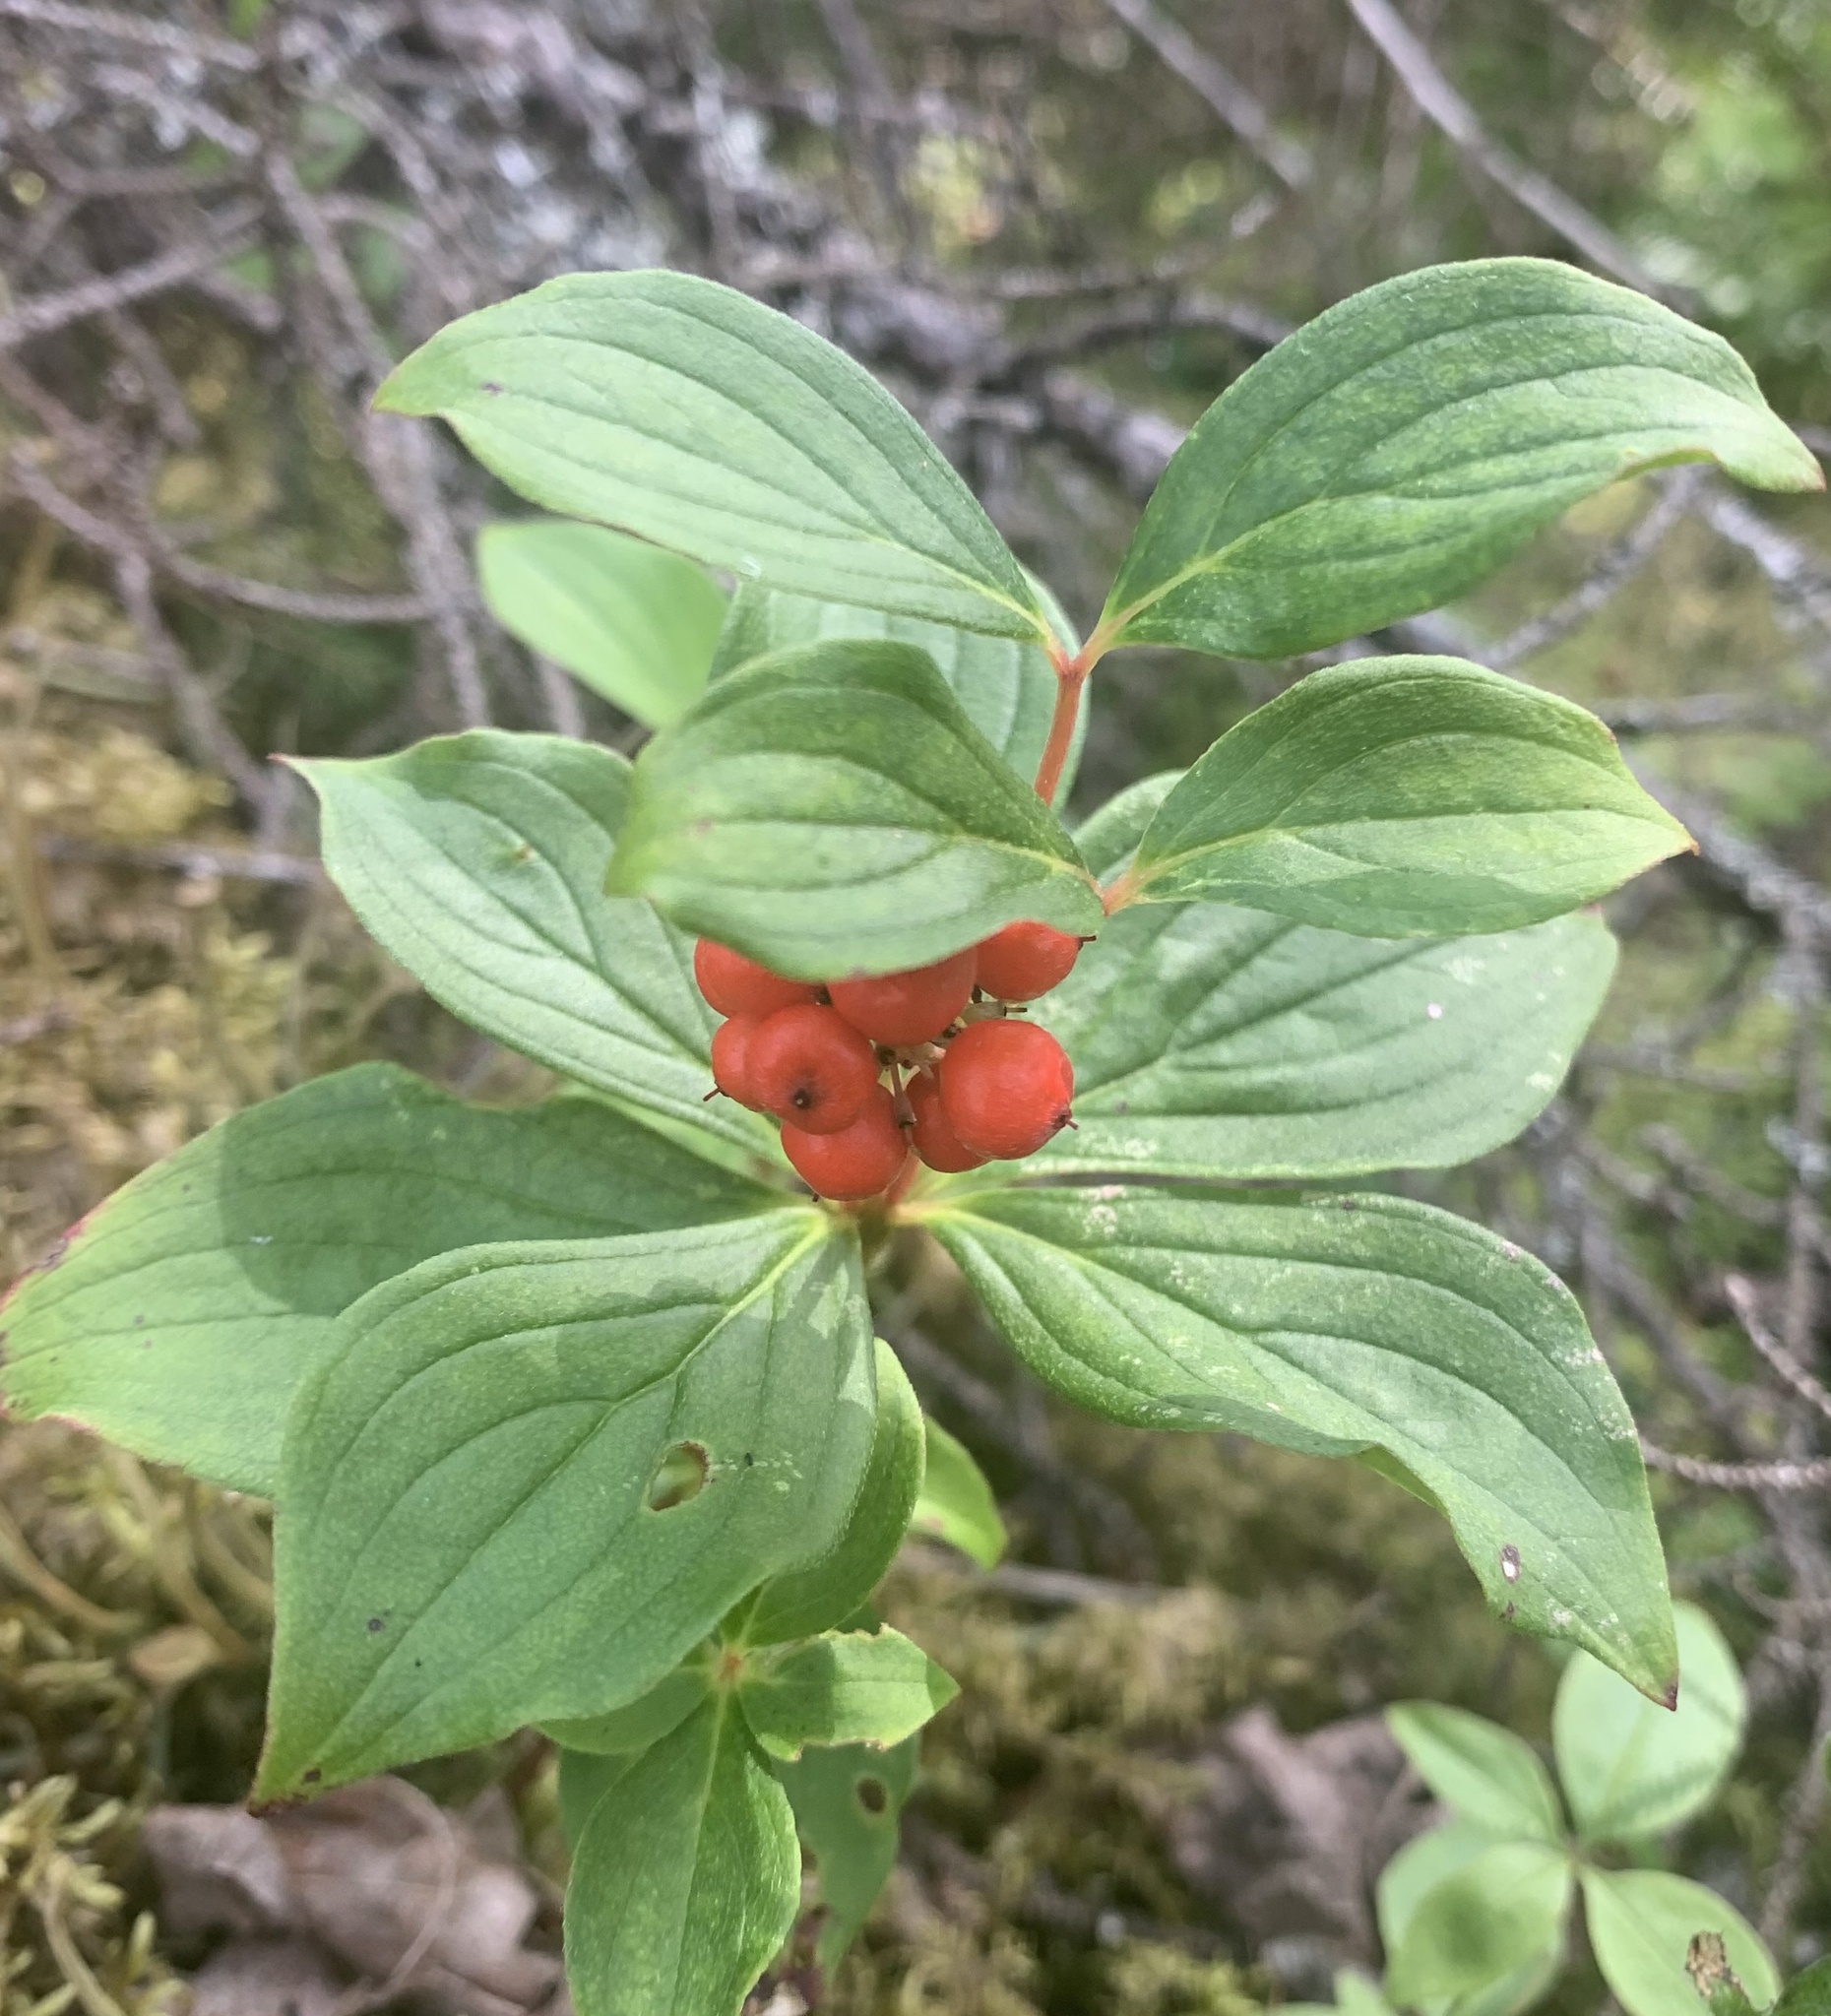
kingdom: Plantae
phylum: Tracheophyta
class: Magnoliopsida
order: Cornales
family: Cornaceae
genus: Cornus
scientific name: Cornus canadensis
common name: Creeping dogwood
